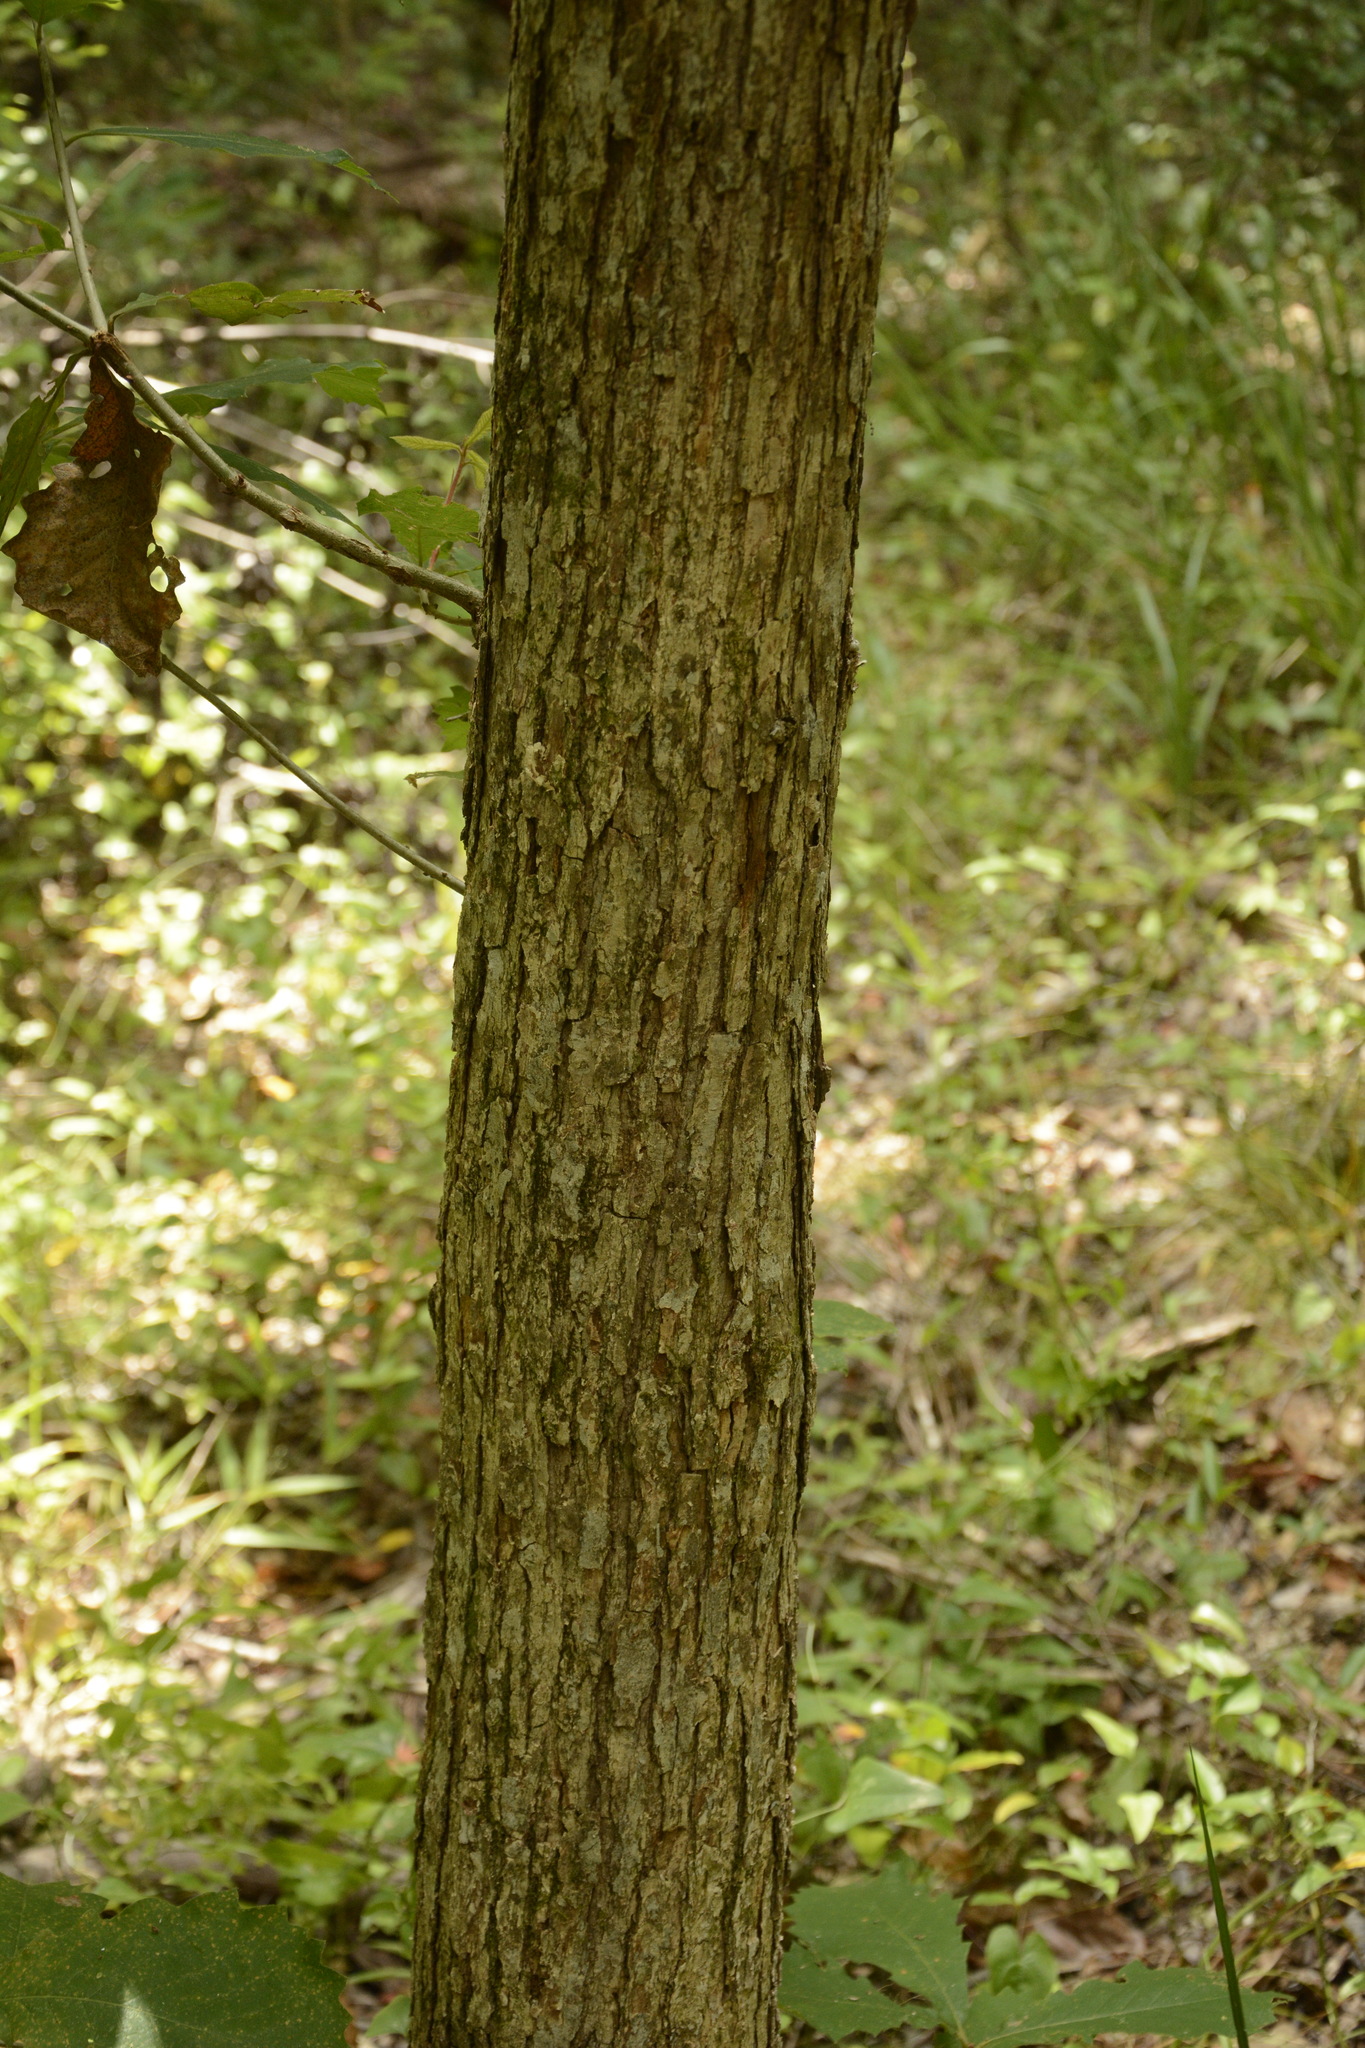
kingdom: Plantae
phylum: Tracheophyta
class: Magnoliopsida
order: Fagales
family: Fagaceae
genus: Quercus
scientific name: Quercus michauxii
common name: Swamp chestnut oak
